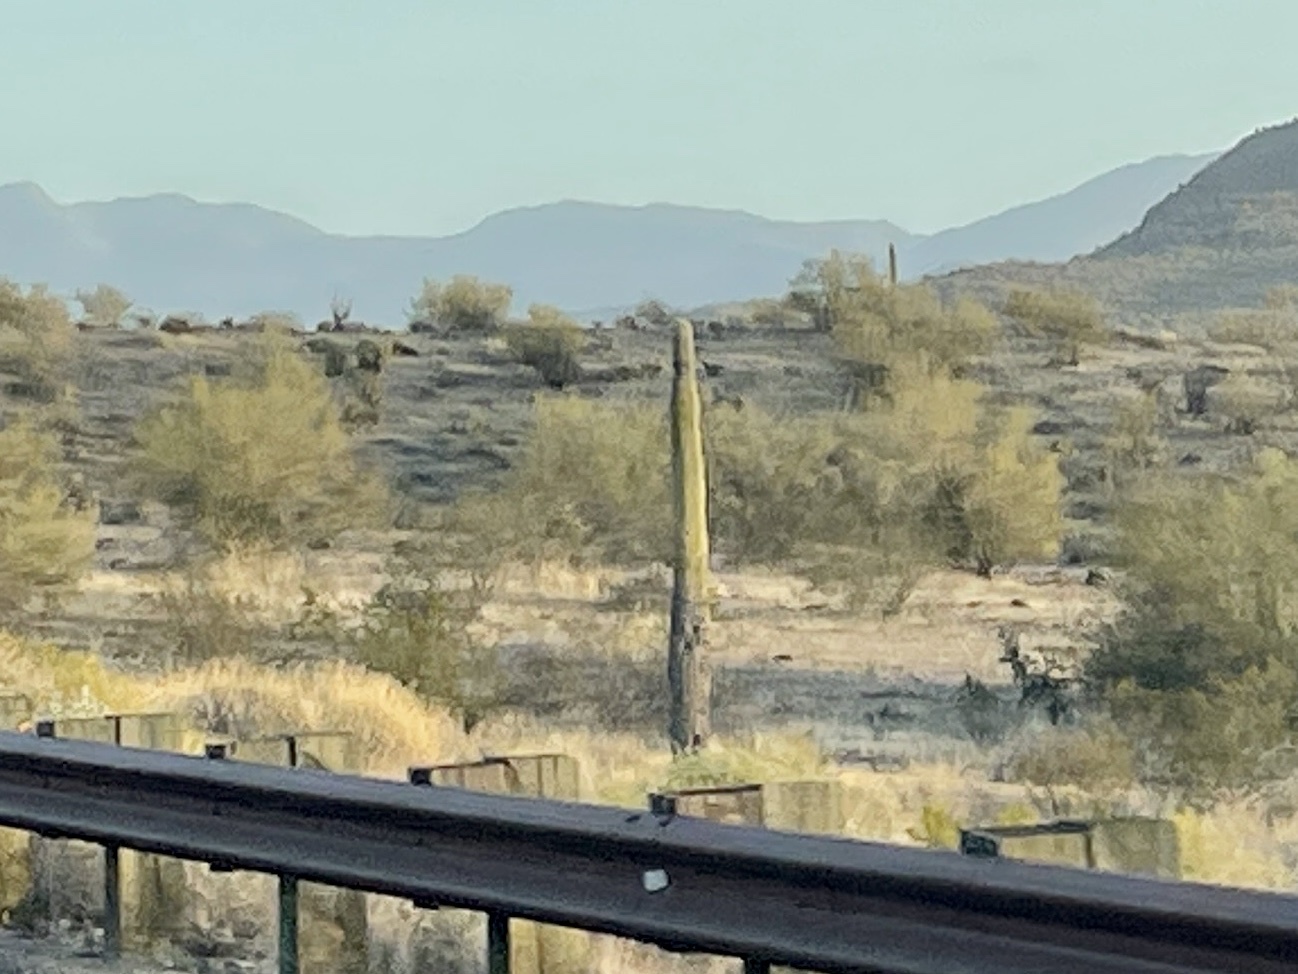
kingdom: Plantae
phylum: Tracheophyta
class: Magnoliopsida
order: Caryophyllales
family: Cactaceae
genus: Carnegiea
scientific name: Carnegiea gigantea
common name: Saguaro
